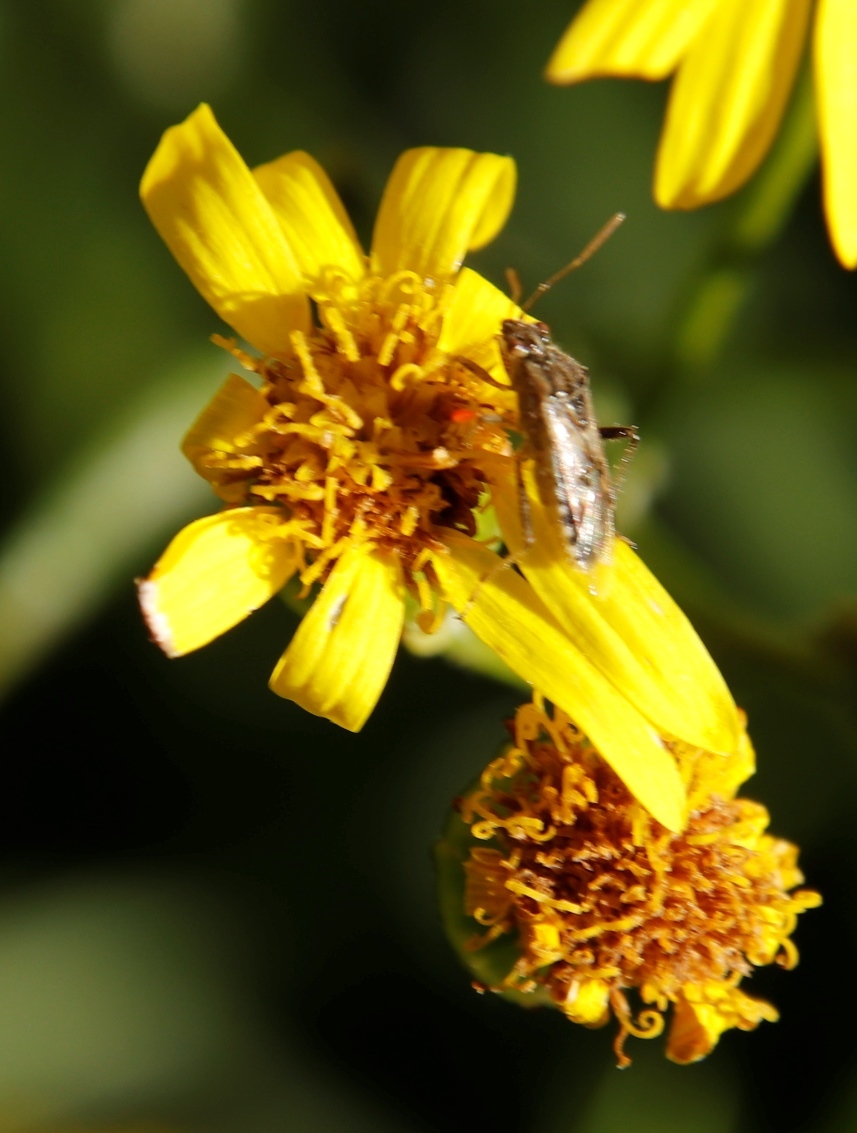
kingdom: Plantae
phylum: Tracheophyta
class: Magnoliopsida
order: Asterales
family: Asteraceae
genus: Senecio
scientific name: Senecio pterophorus
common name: Shoddy ragwort
